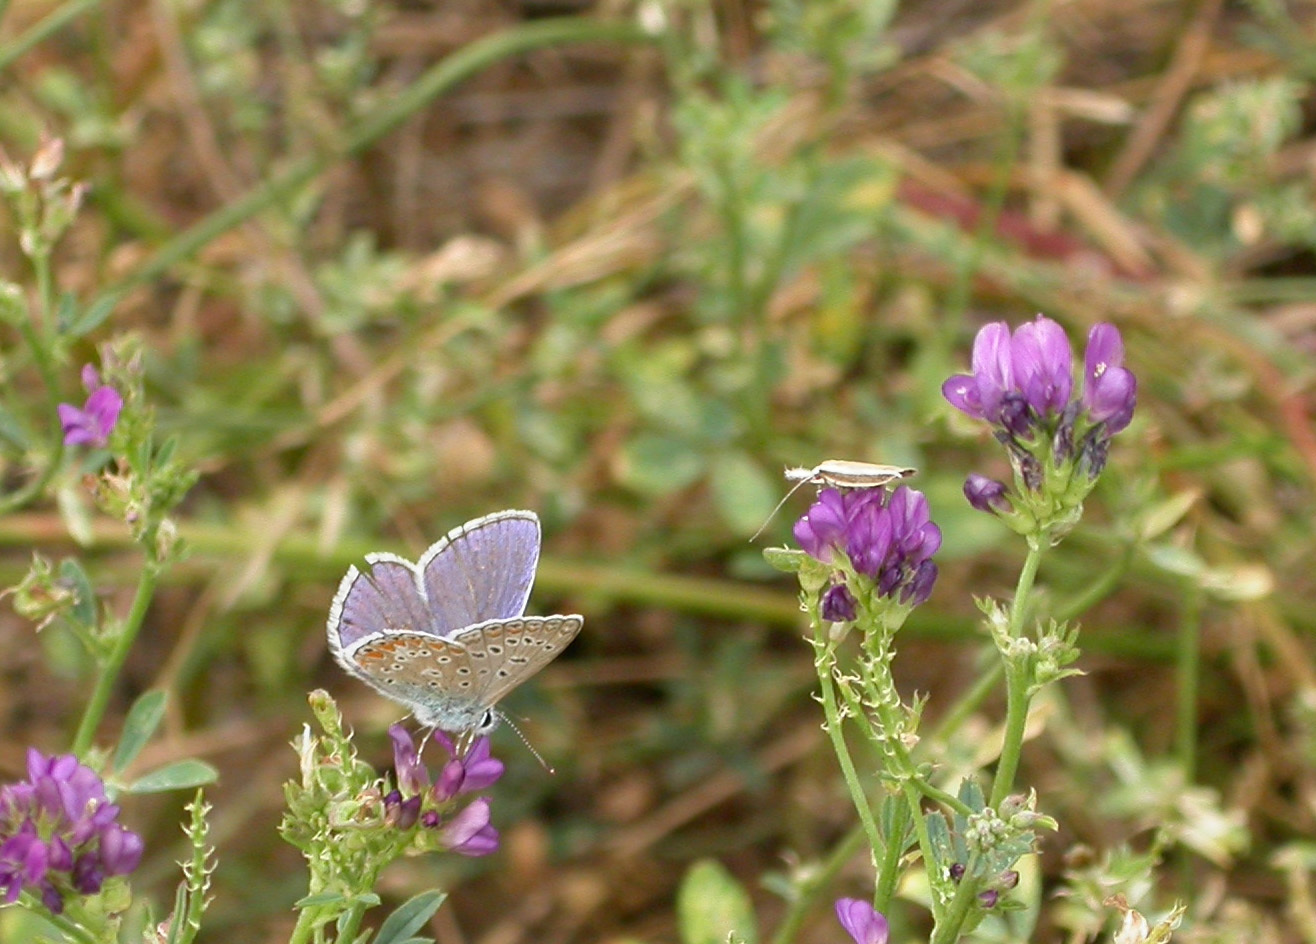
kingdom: Animalia
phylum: Arthropoda
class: Insecta
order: Lepidoptera
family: Lycaenidae
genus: Polyommatus
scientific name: Polyommatus icarus
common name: Common blue
